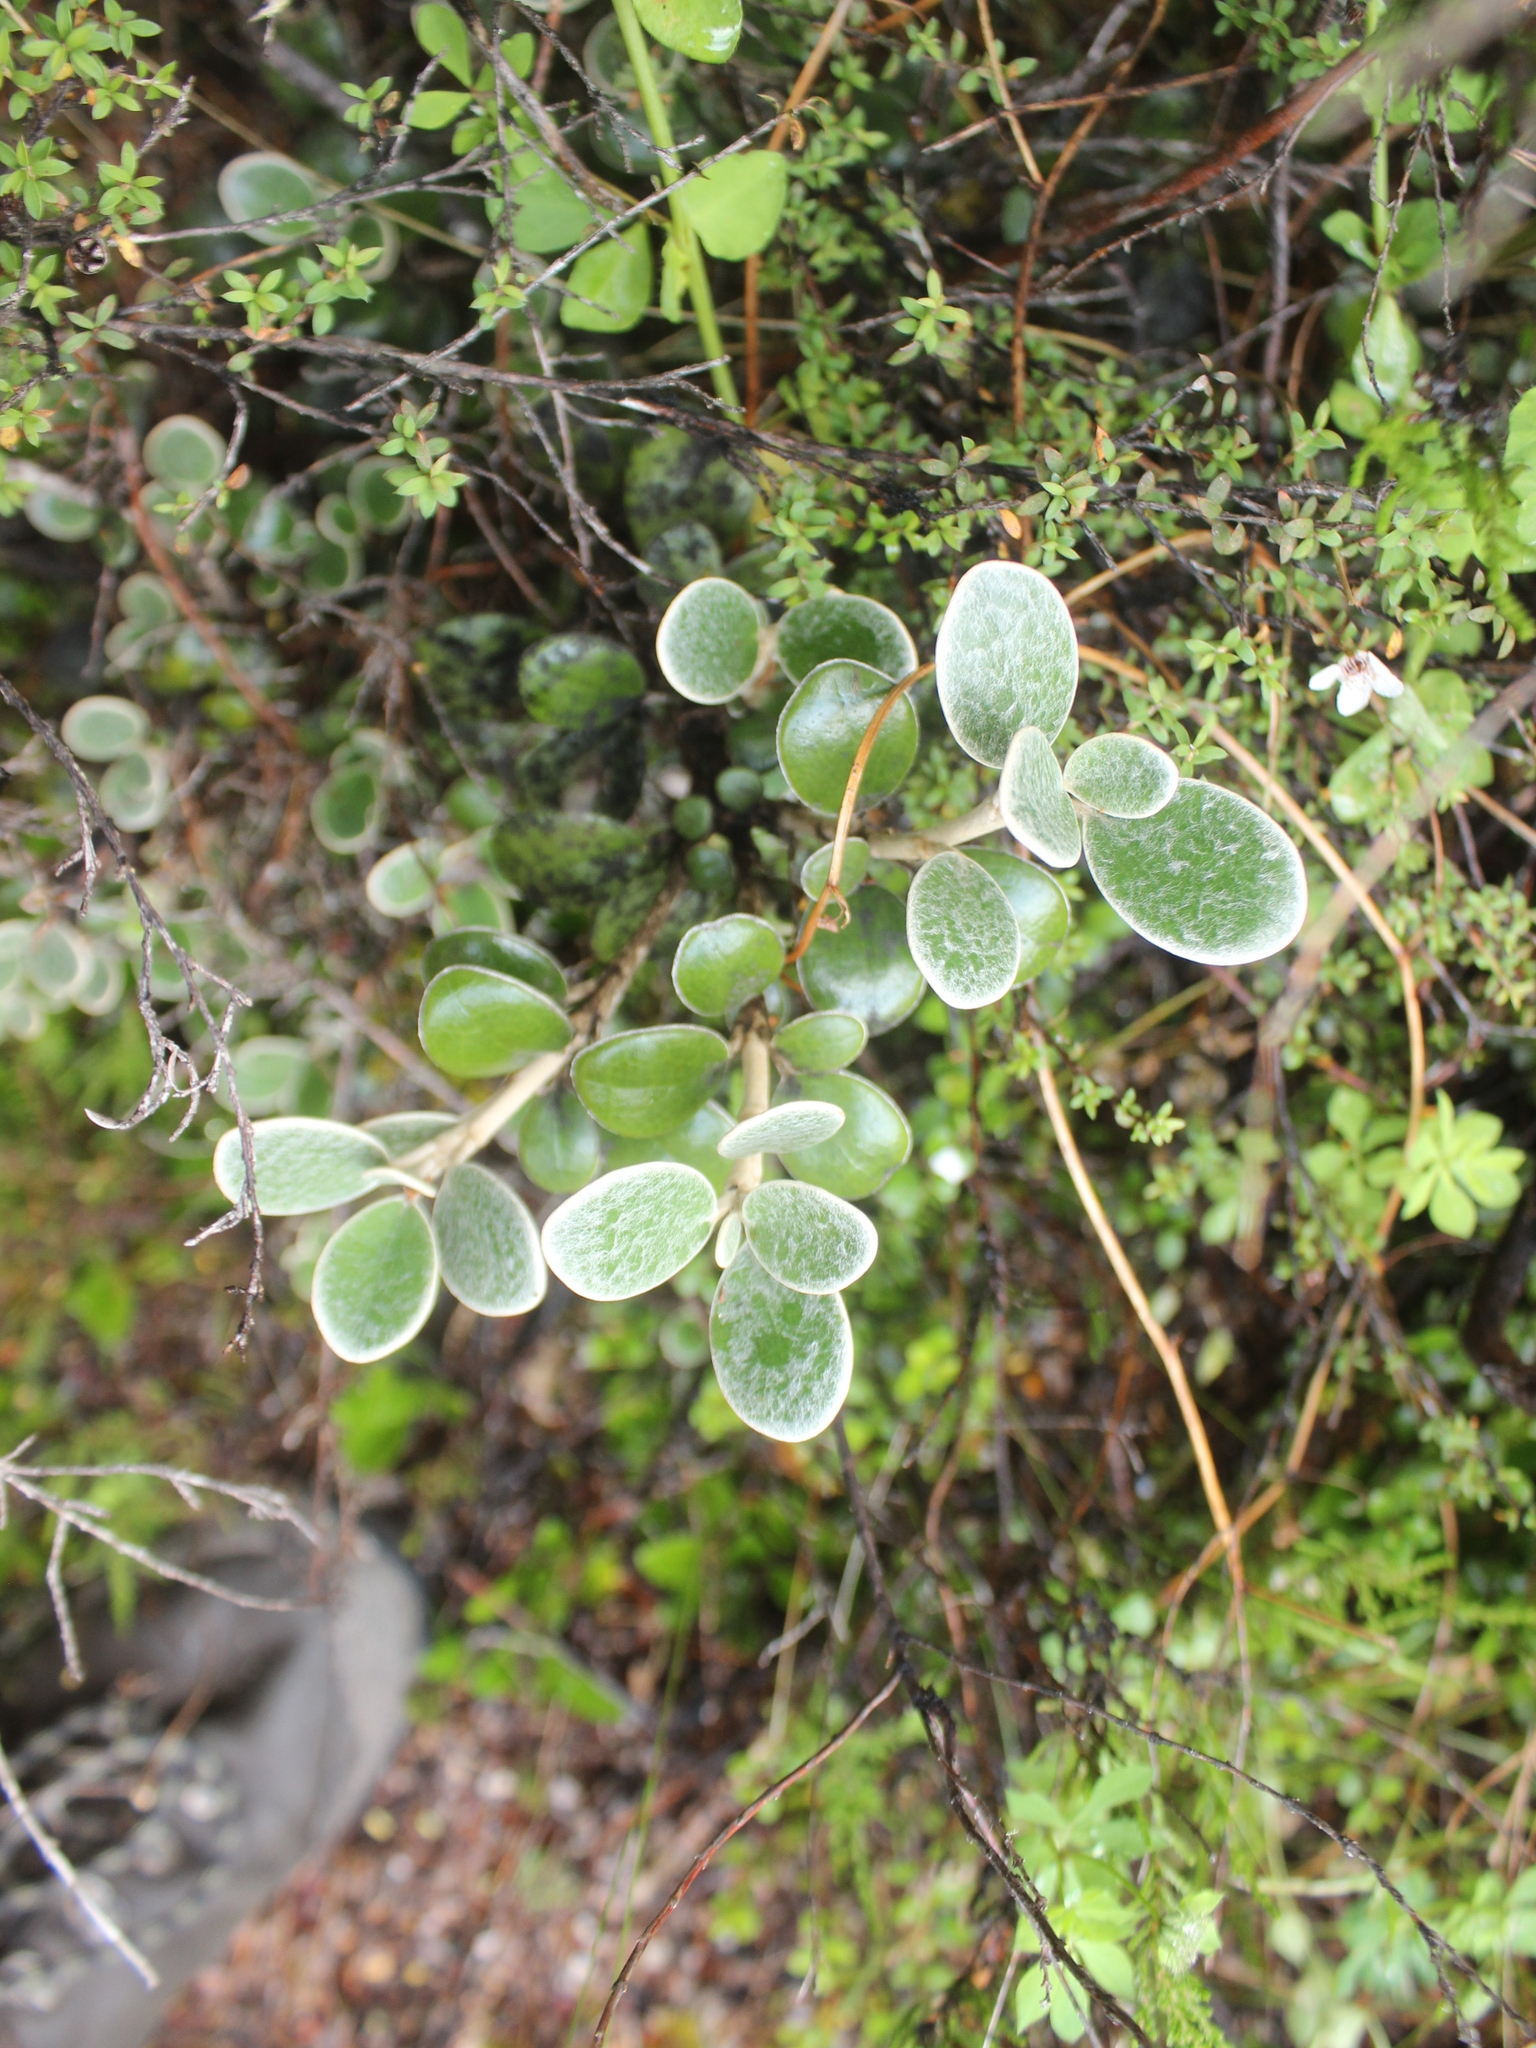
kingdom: Plantae
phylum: Tracheophyta
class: Magnoliopsida
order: Asterales
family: Asteraceae
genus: Brachyglottis
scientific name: Brachyglottis bidwillii
